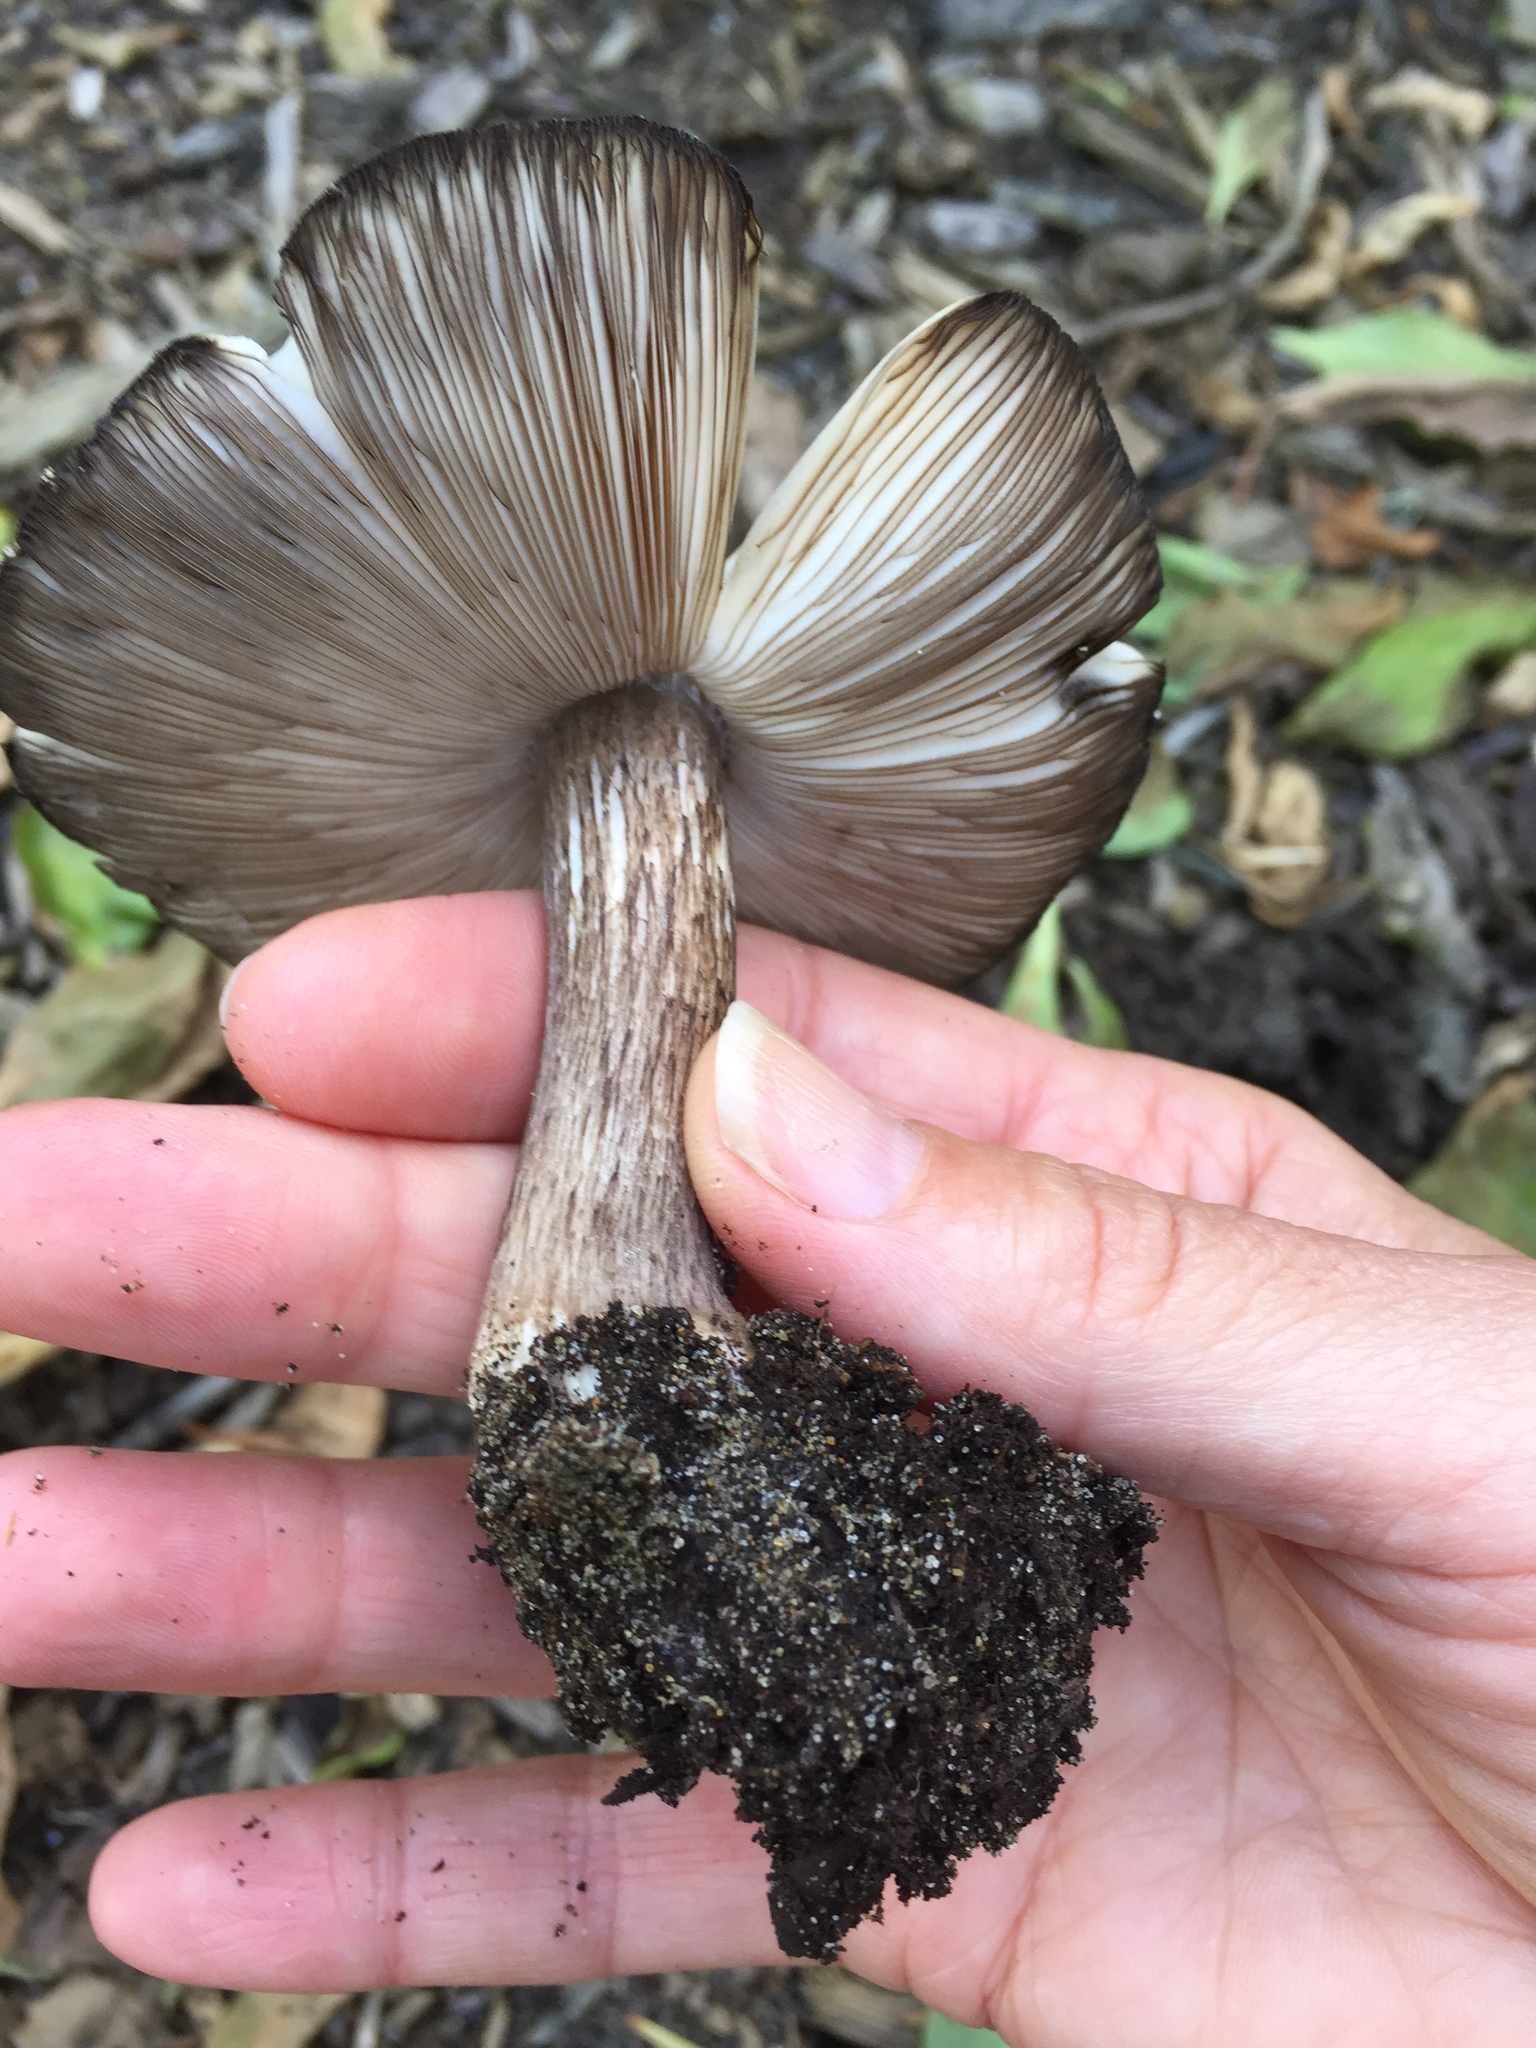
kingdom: Fungi
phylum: Basidiomycota
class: Agaricomycetes
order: Agaricales
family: Pluteaceae
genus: Pluteus
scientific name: Pluteus exilis
